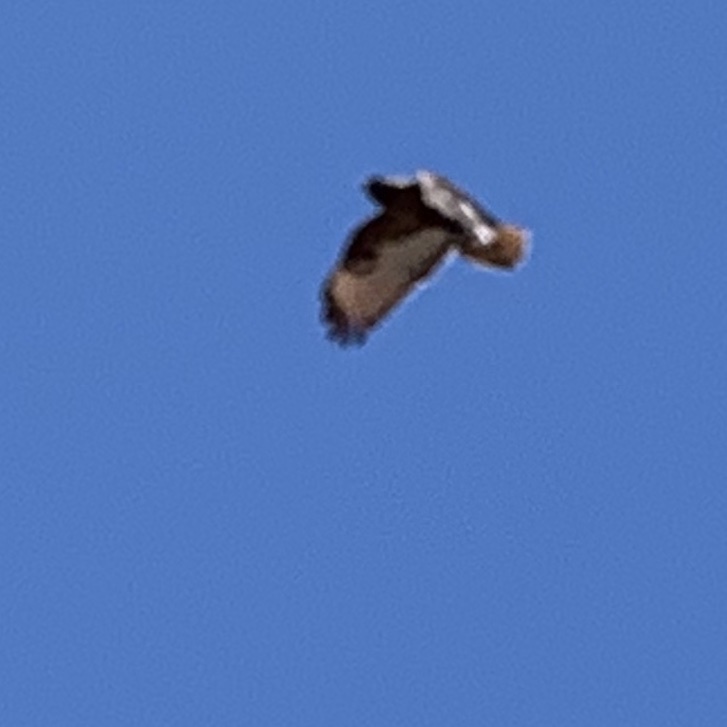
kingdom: Animalia
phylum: Chordata
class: Aves
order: Accipitriformes
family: Accipitridae
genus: Buteo
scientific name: Buteo jamaicensis
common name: Red-tailed hawk
